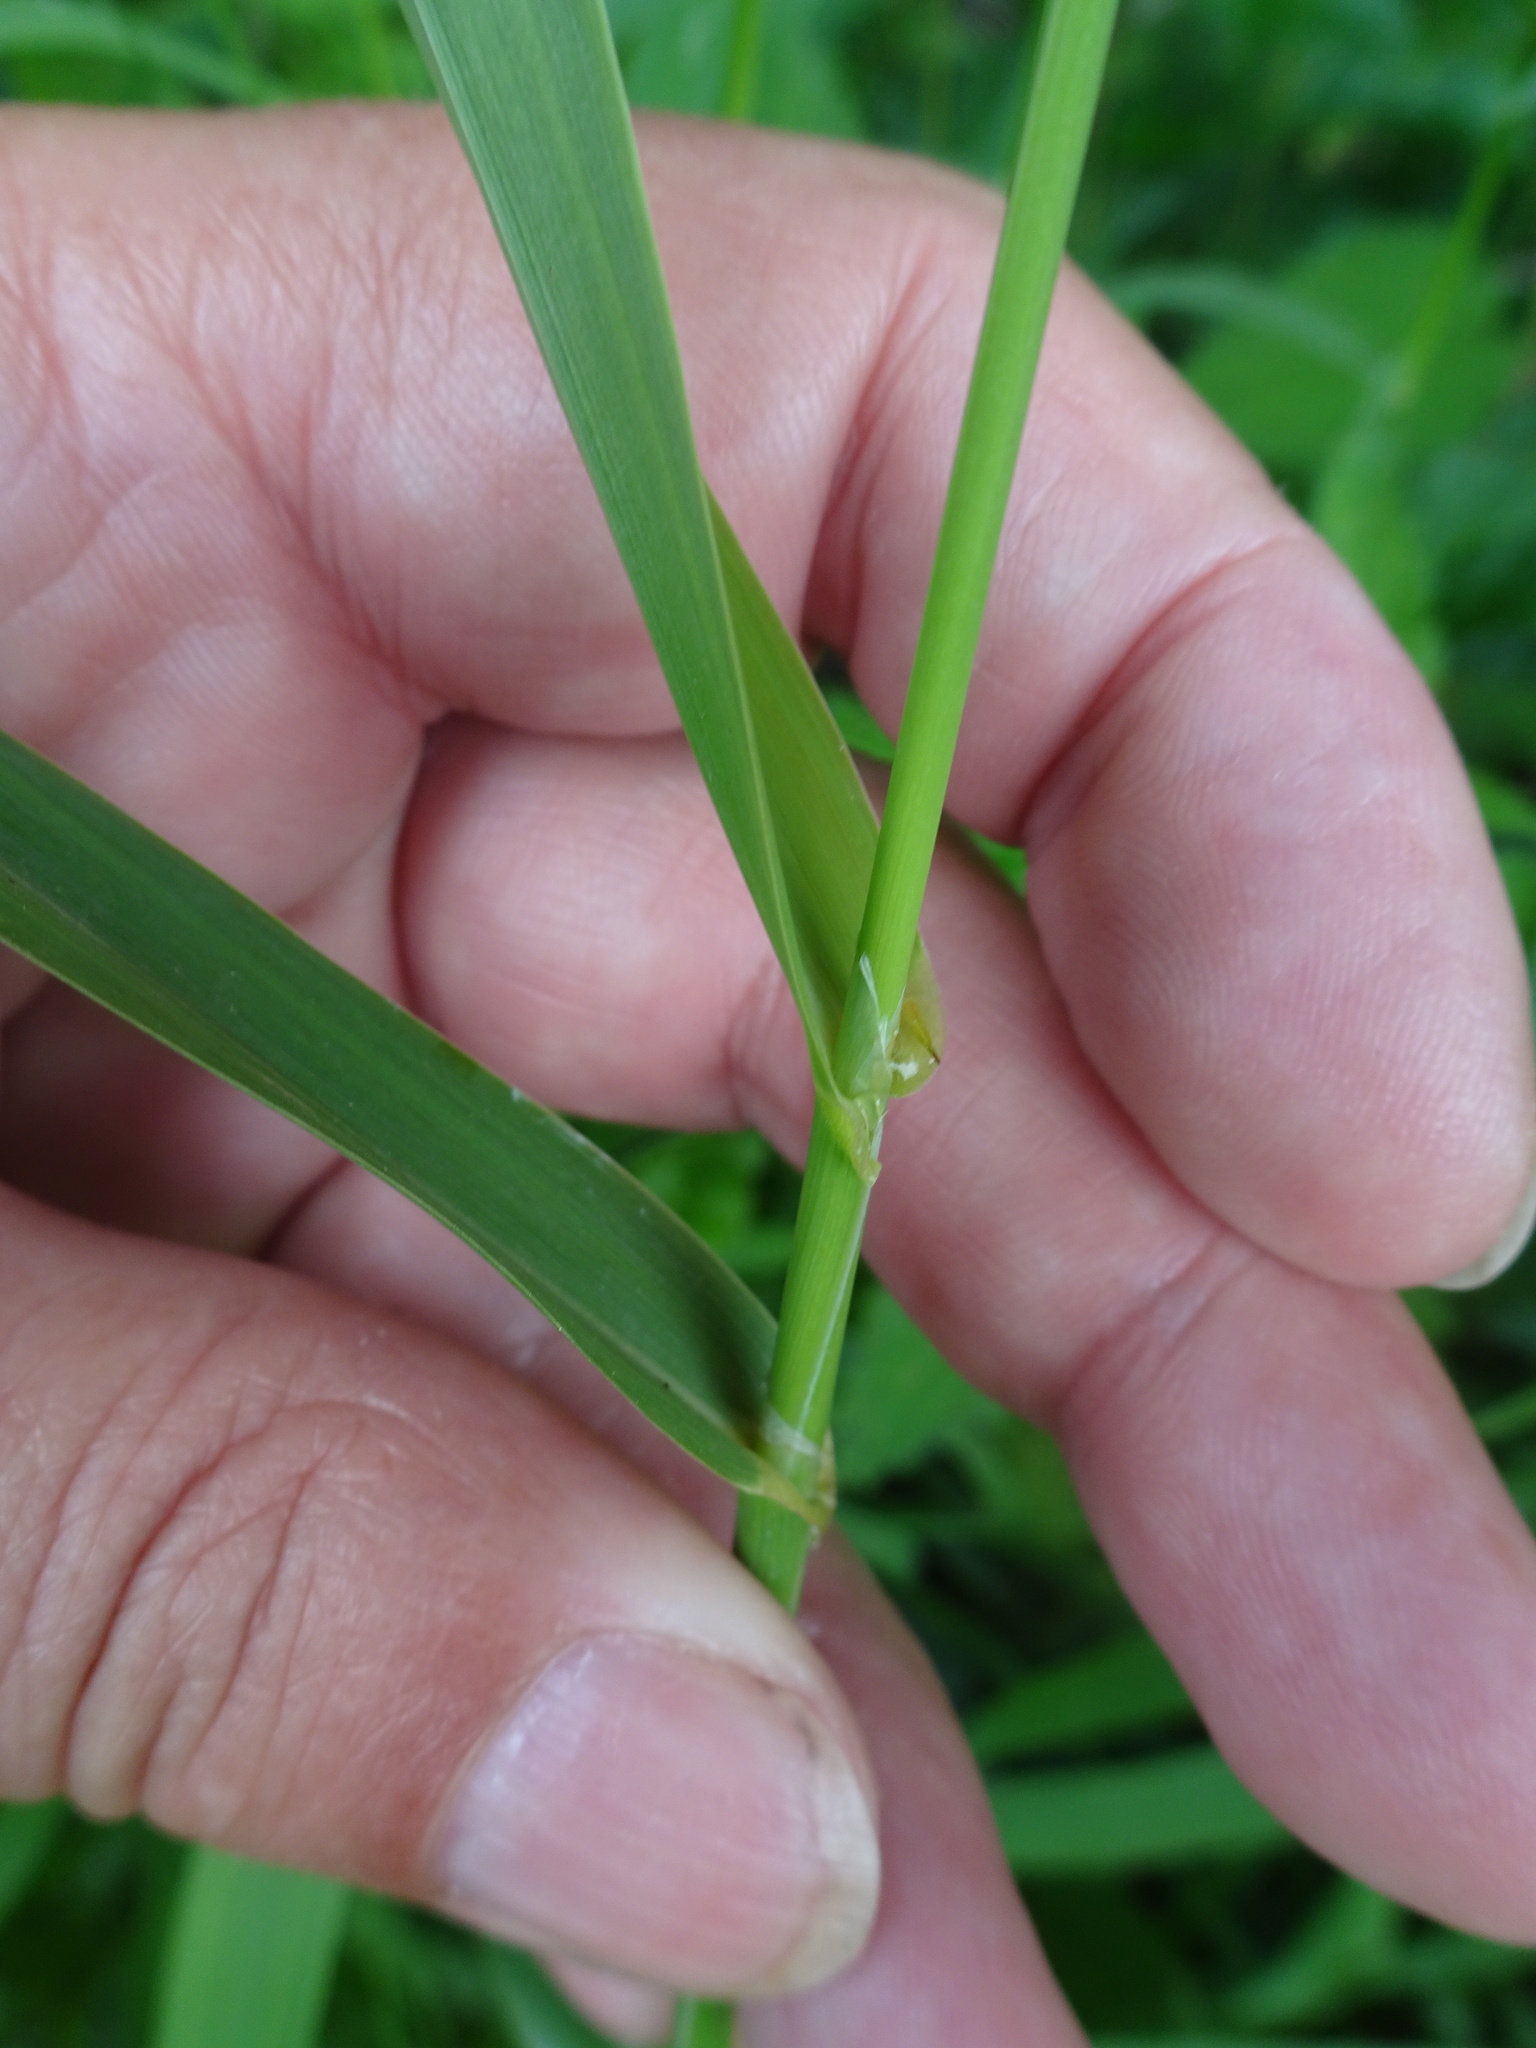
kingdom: Plantae
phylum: Tracheophyta
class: Liliopsida
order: Poales
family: Poaceae
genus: Phalaris
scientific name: Phalaris arundinacea
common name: Reed canary-grass
